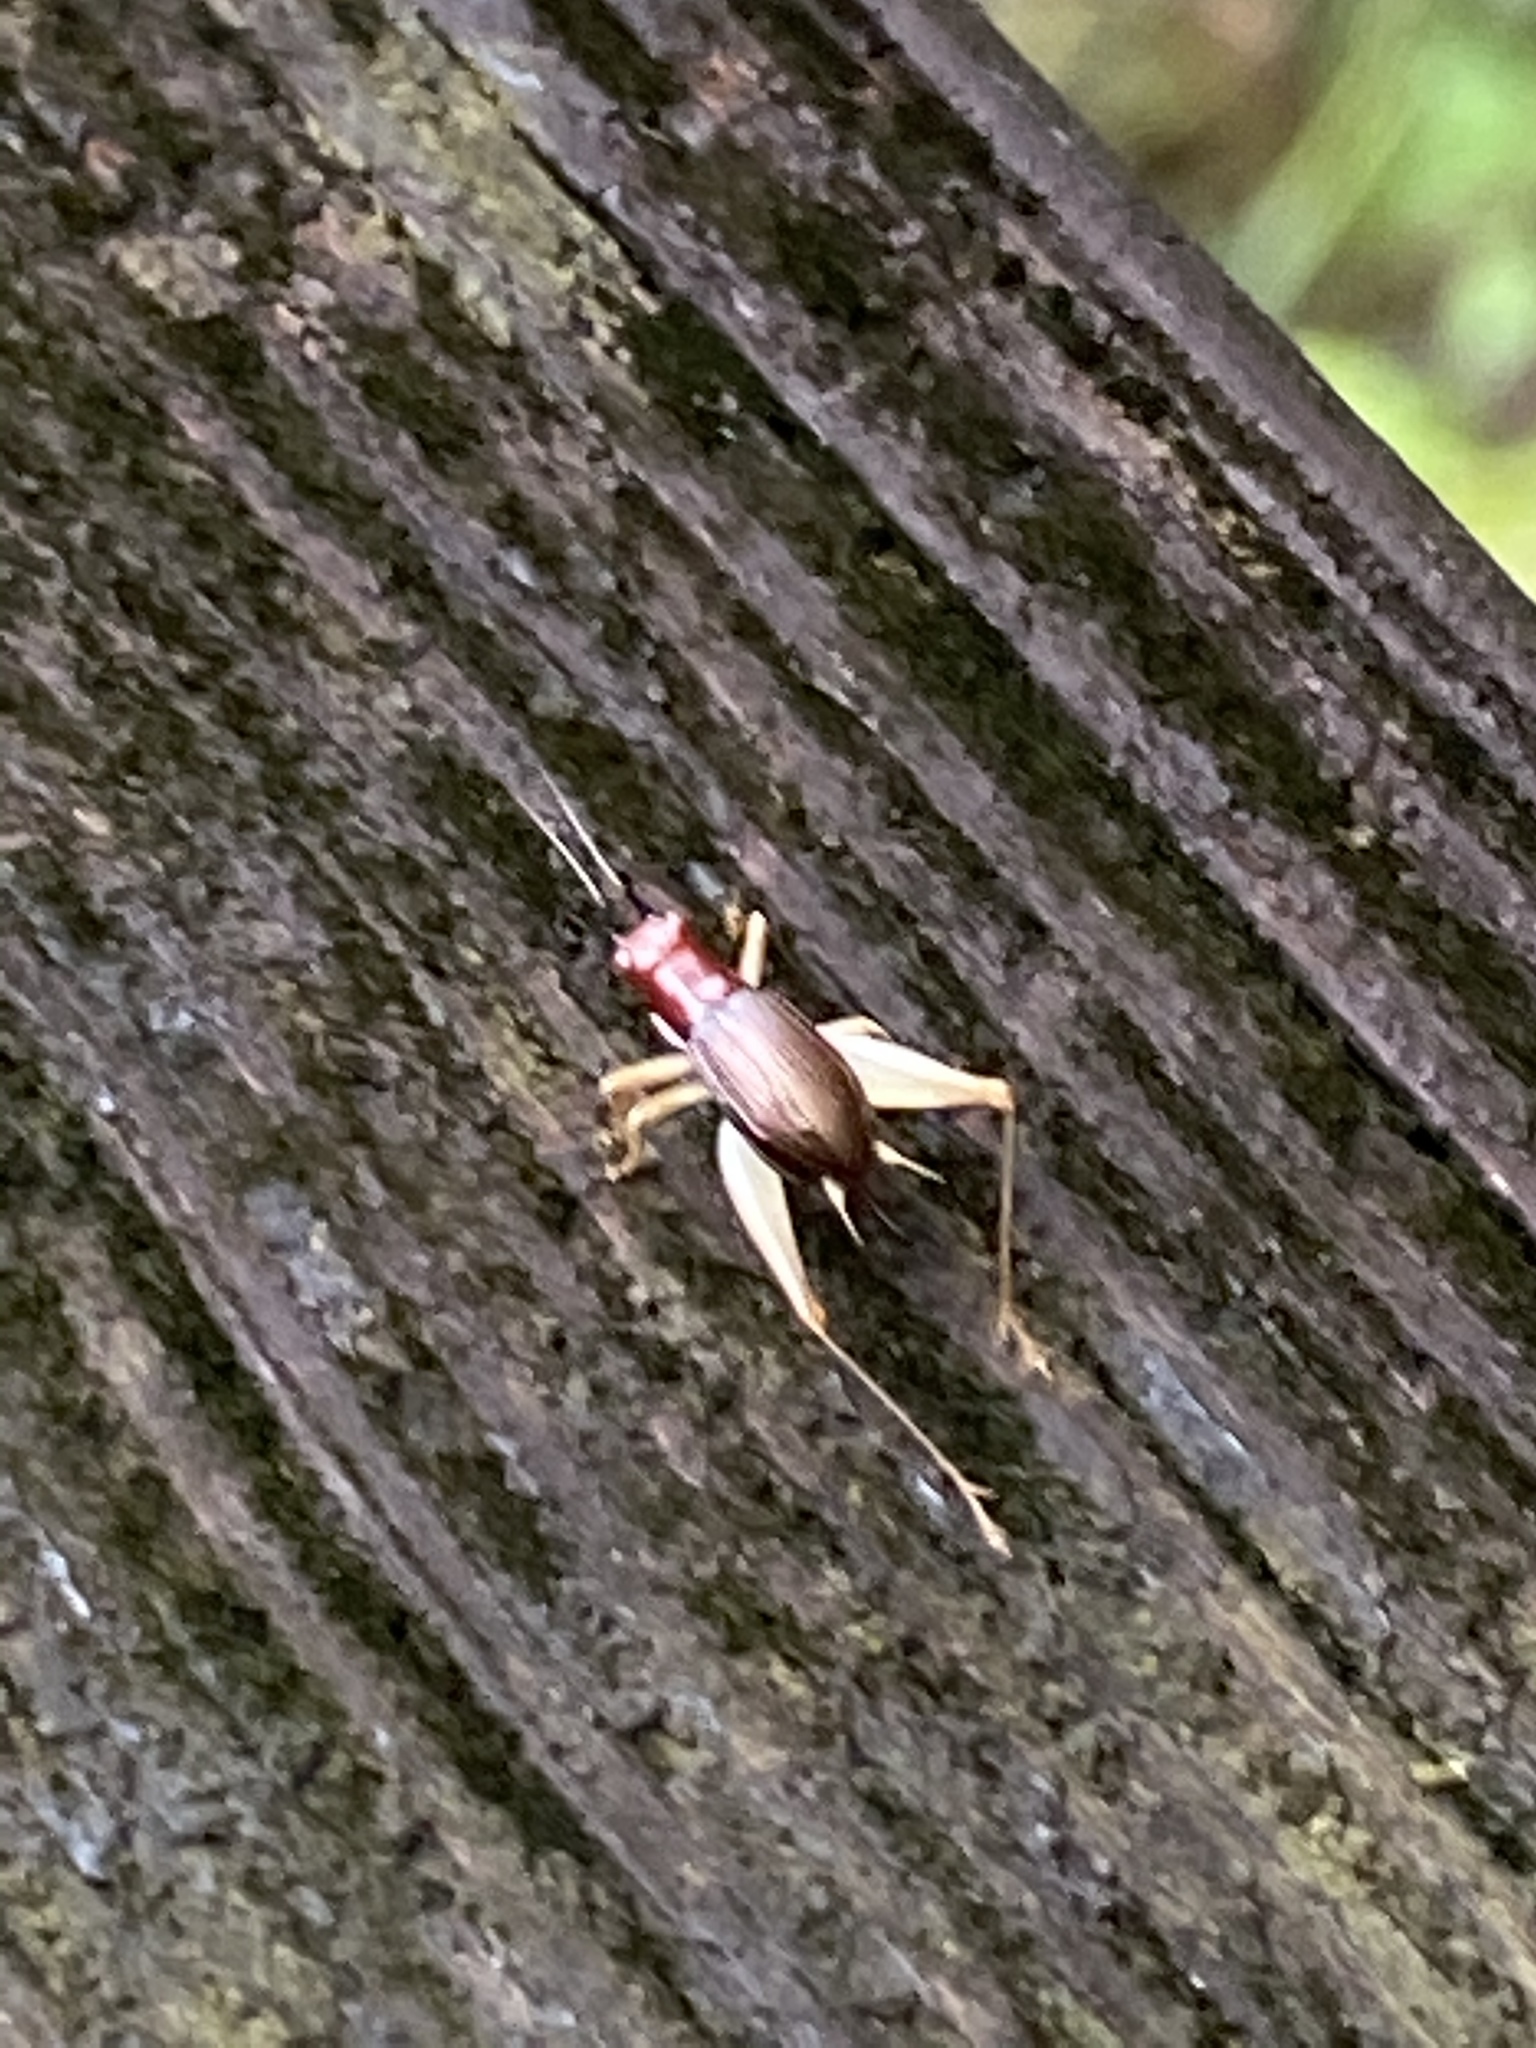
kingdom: Animalia
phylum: Arthropoda
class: Insecta
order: Orthoptera
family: Trigonidiidae
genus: Phyllopalpus
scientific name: Phyllopalpus pulchellus
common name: Handsome trig
